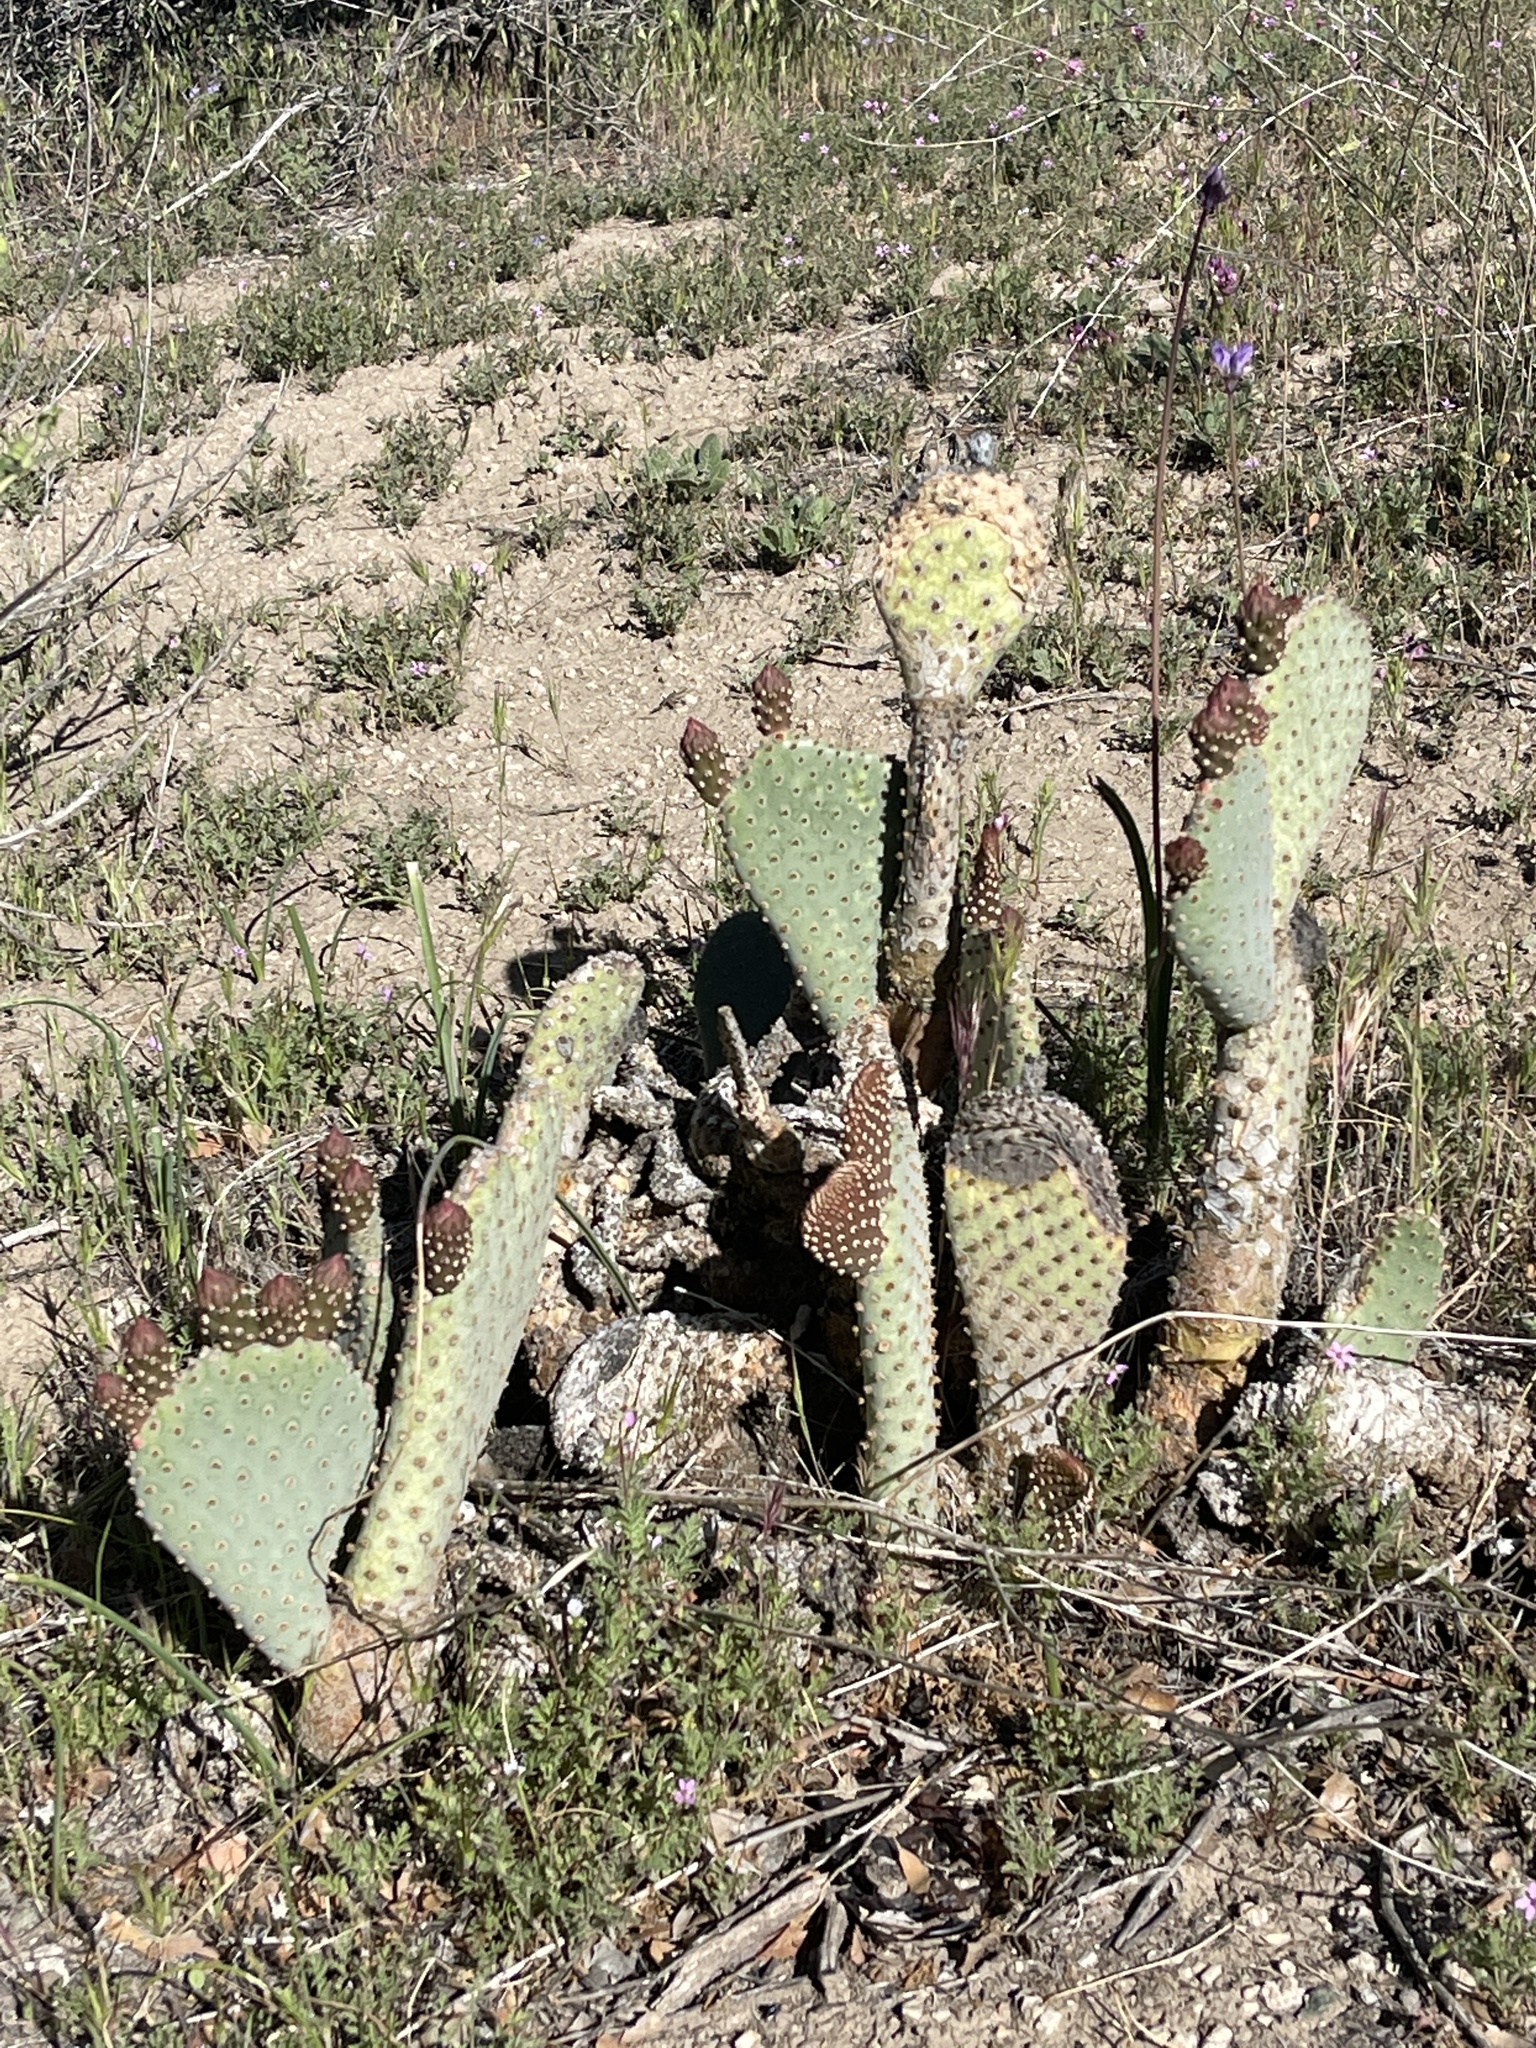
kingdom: Plantae
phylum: Tracheophyta
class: Magnoliopsida
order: Caryophyllales
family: Cactaceae
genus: Opuntia
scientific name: Opuntia basilaris
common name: Beavertail prickly-pear
